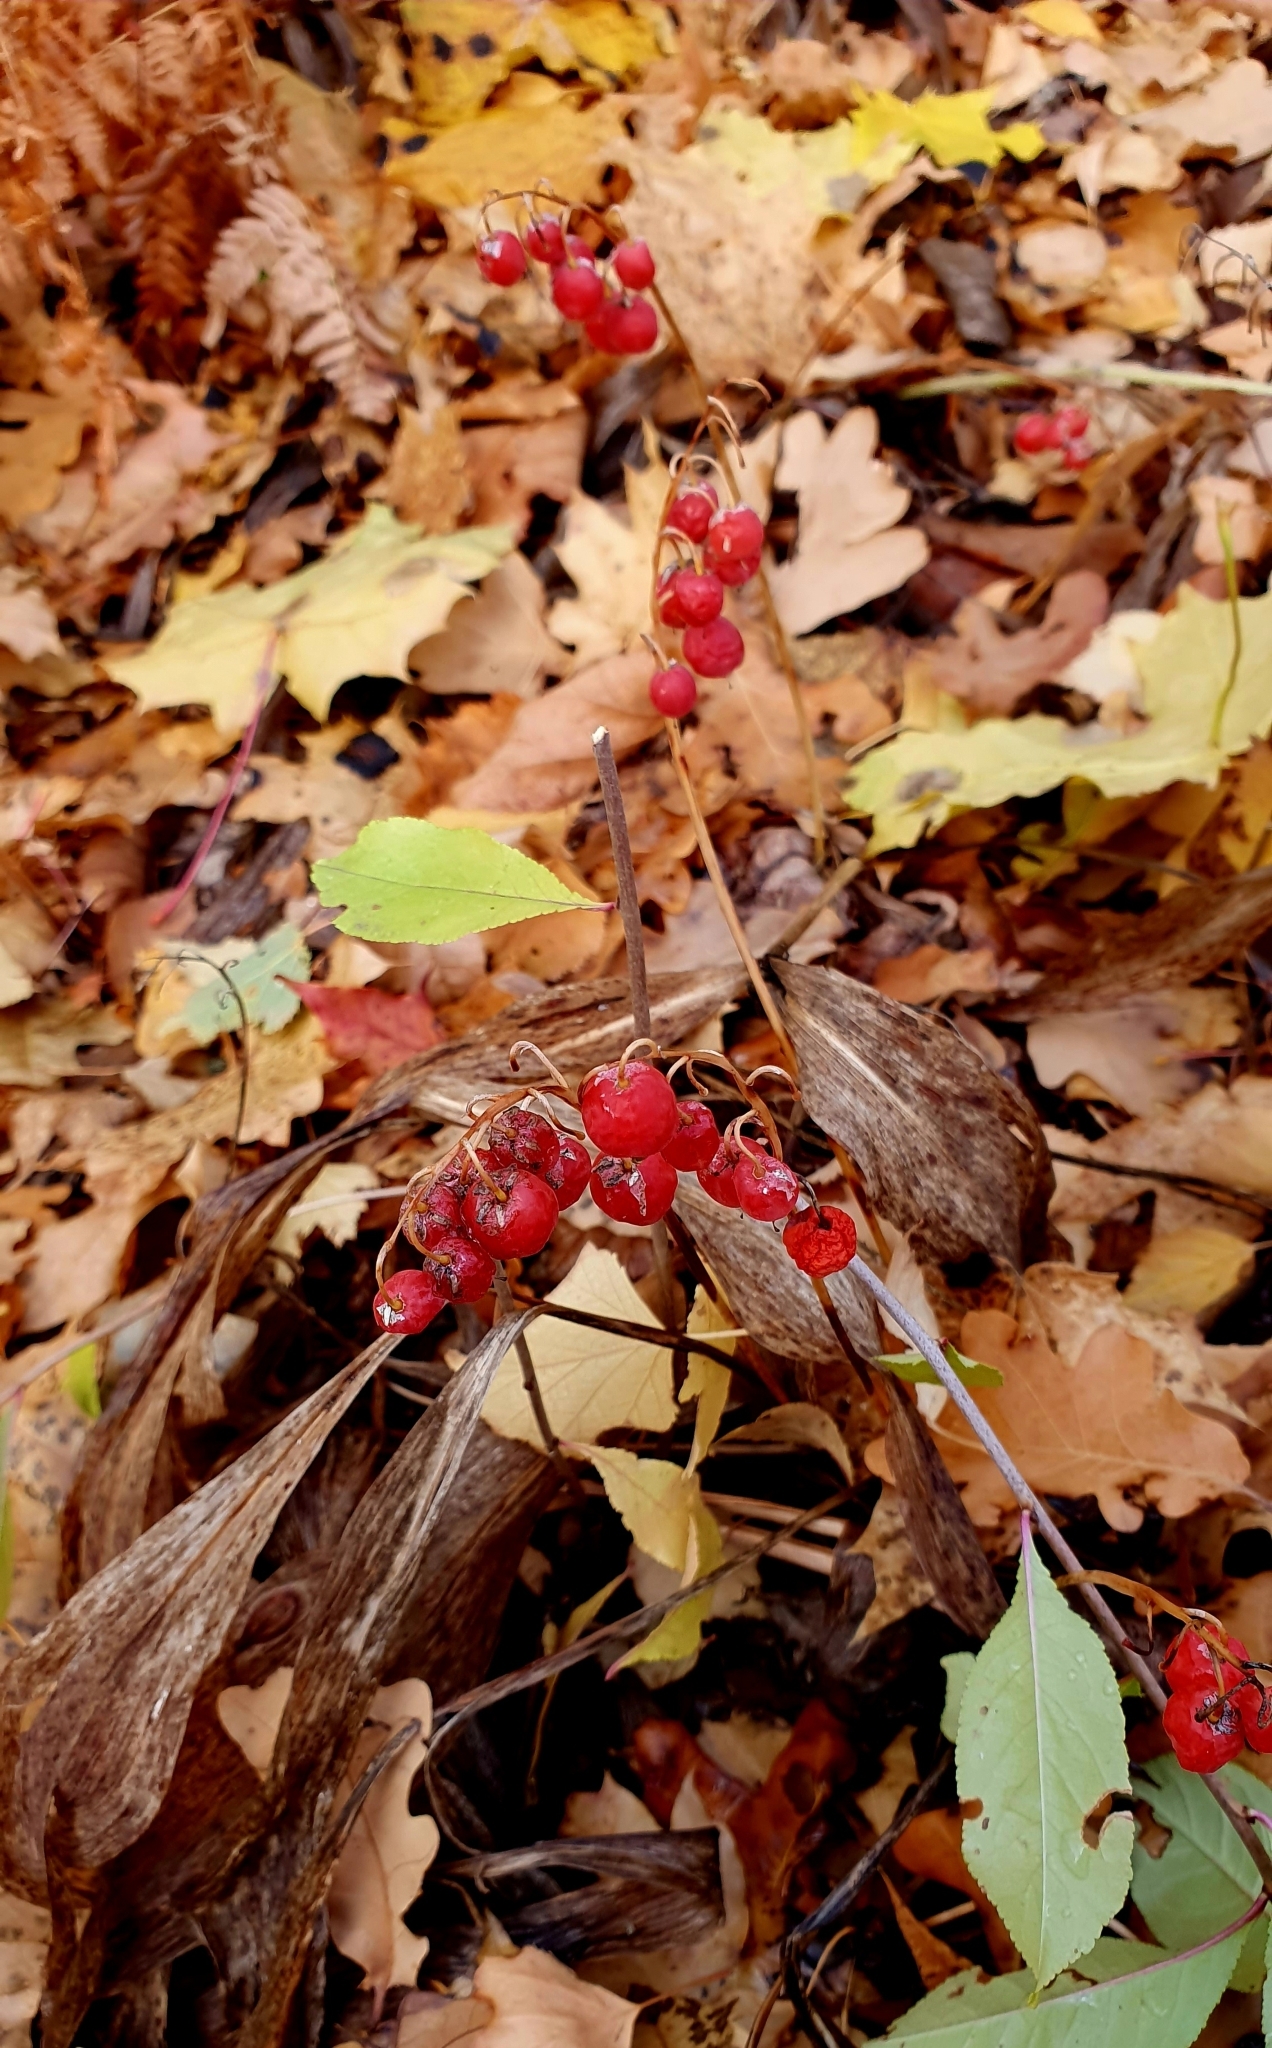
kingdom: Plantae
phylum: Tracheophyta
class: Liliopsida
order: Asparagales
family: Asparagaceae
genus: Convallaria
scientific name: Convallaria majalis
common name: Lily-of-the-valley
